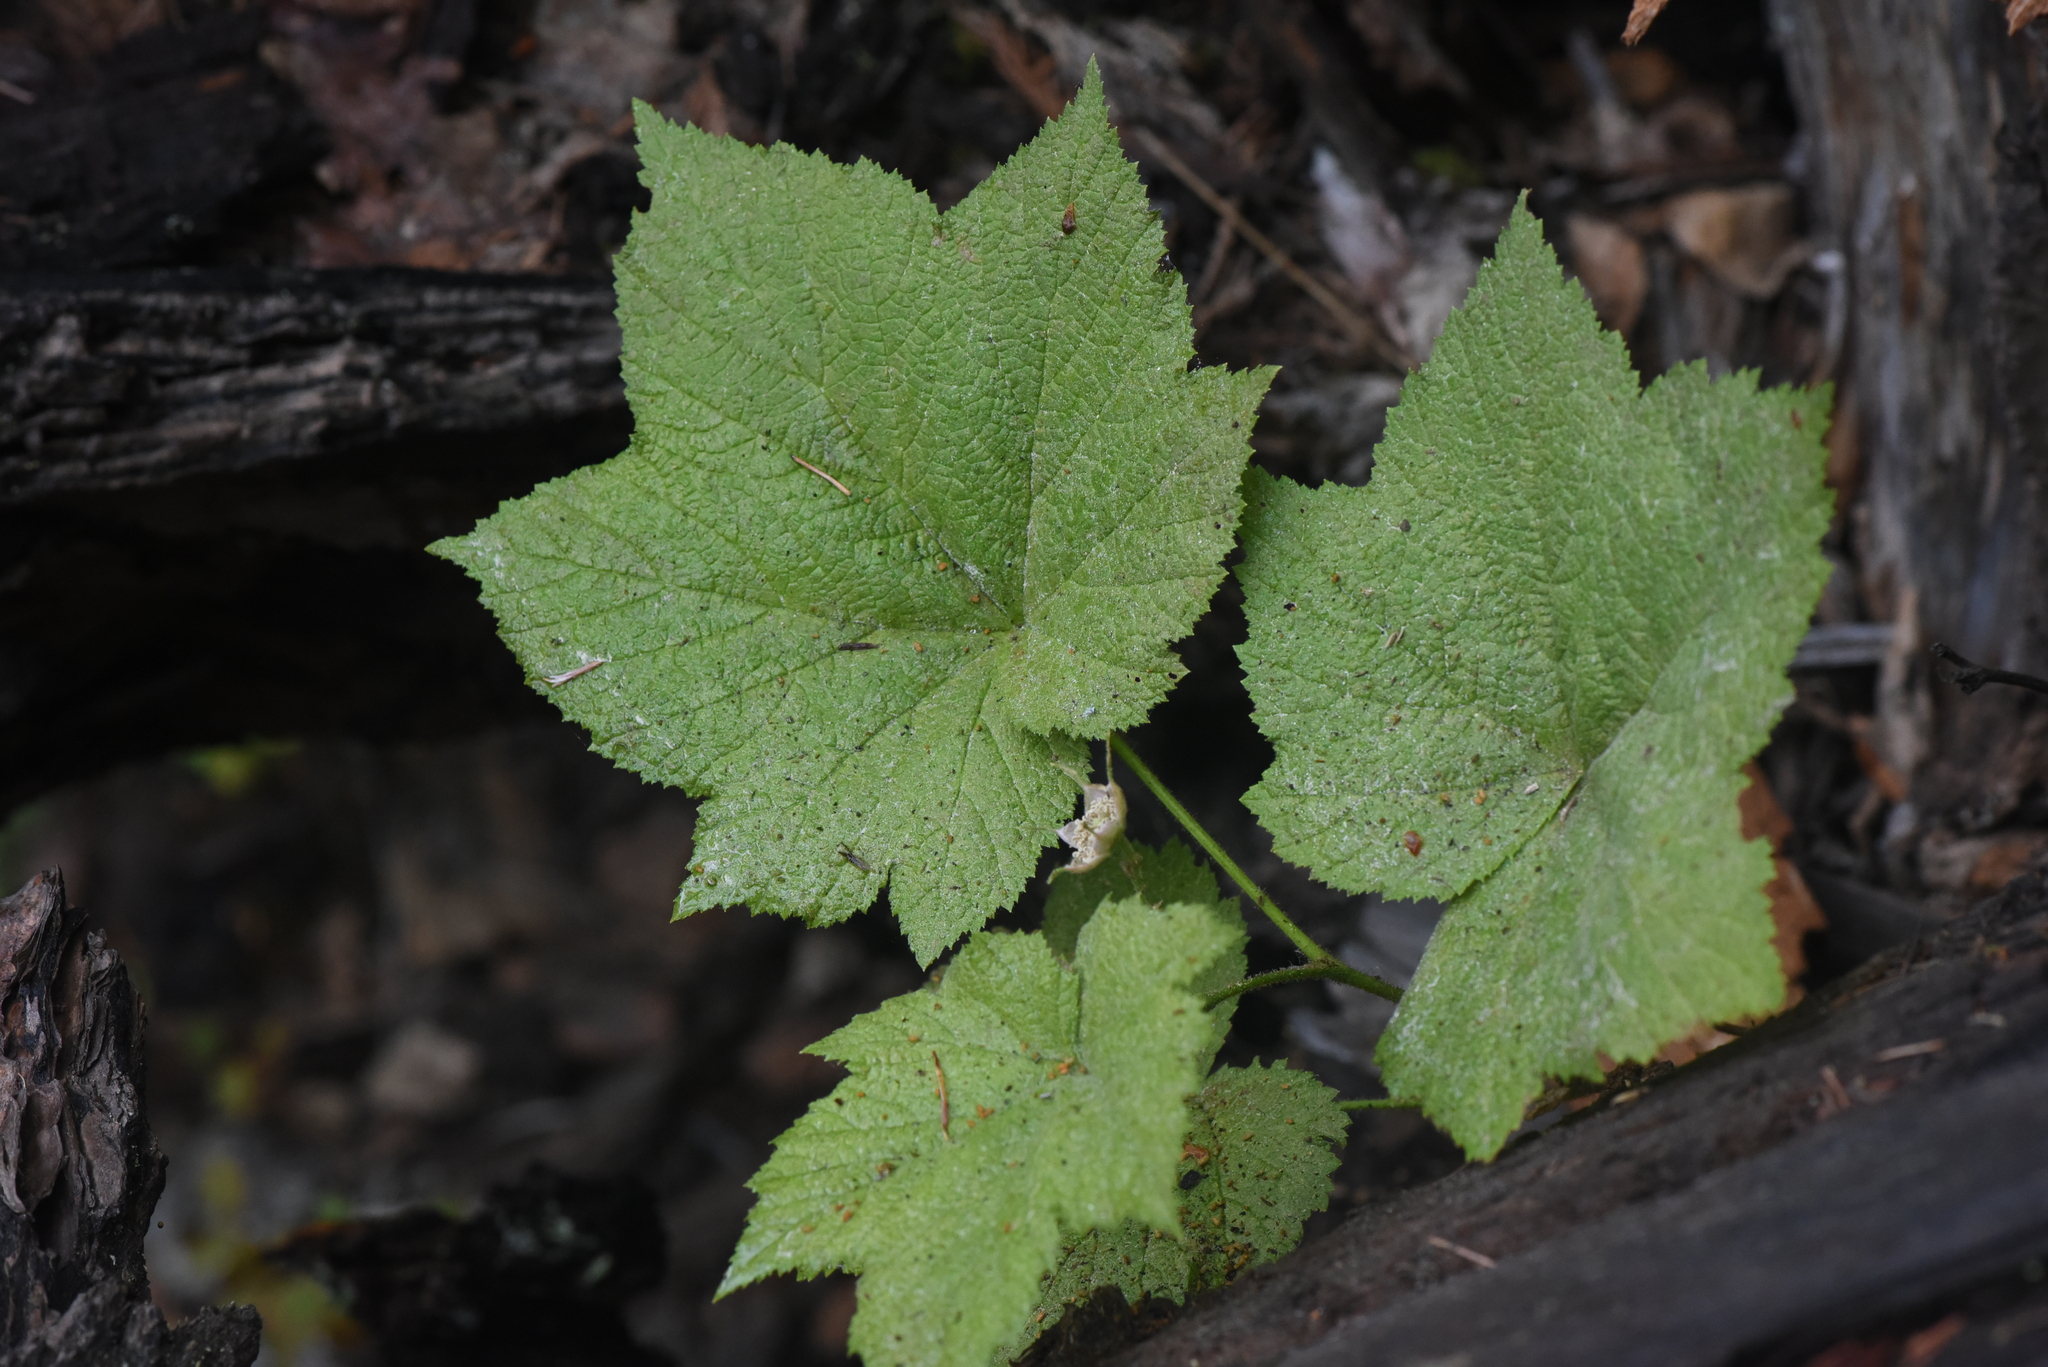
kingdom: Plantae
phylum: Tracheophyta
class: Magnoliopsida
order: Rosales
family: Rosaceae
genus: Rubus
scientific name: Rubus parviflorus
